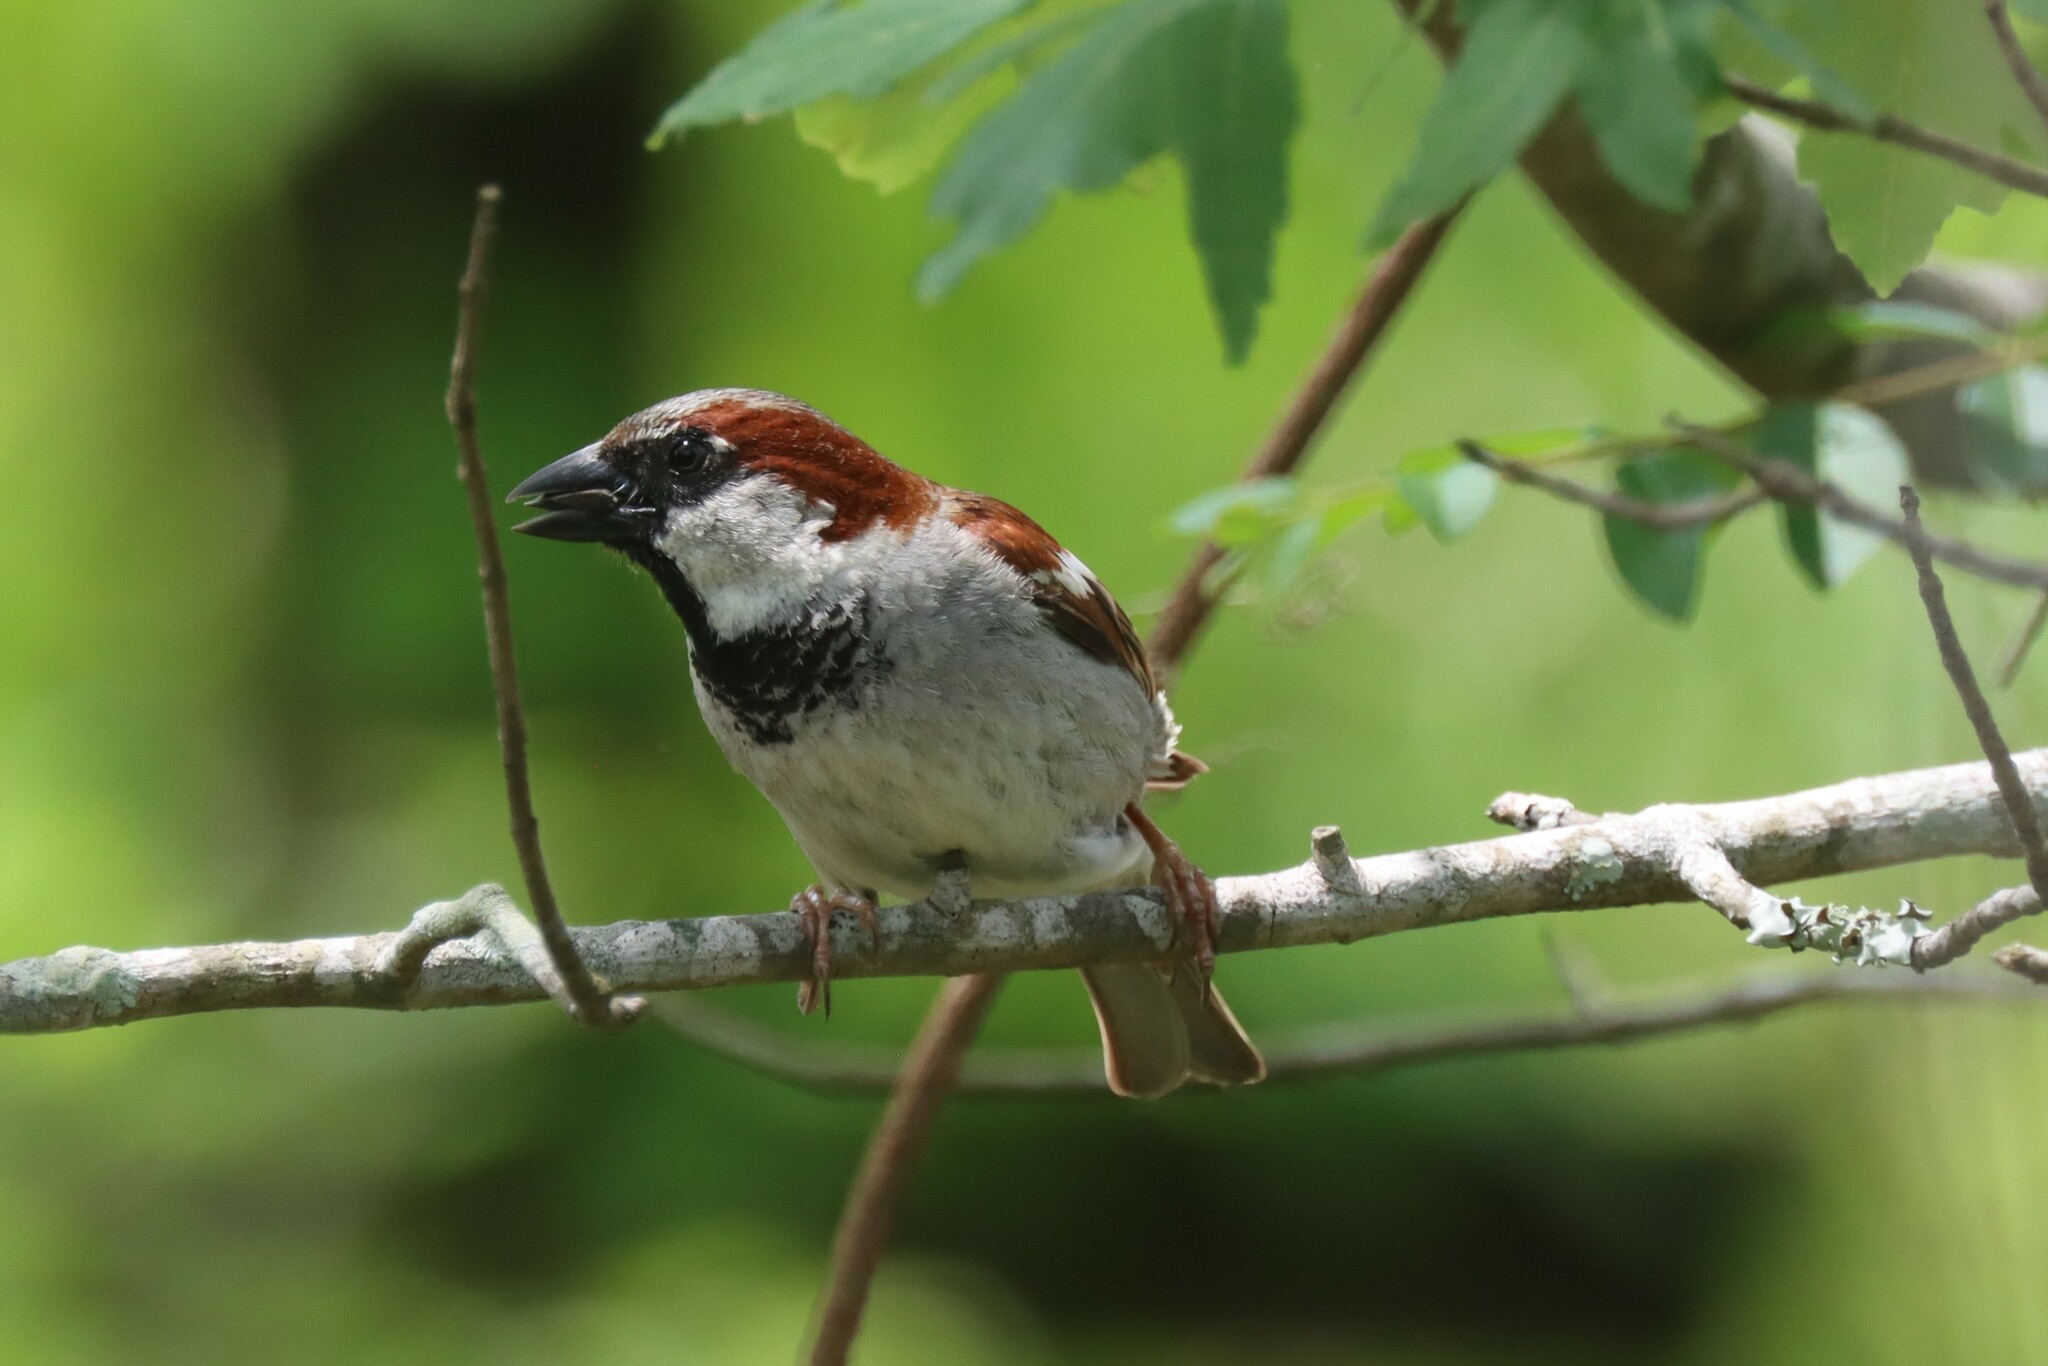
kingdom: Animalia
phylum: Chordata
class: Aves
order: Passeriformes
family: Passeridae
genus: Passer
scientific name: Passer domesticus
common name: House sparrow
